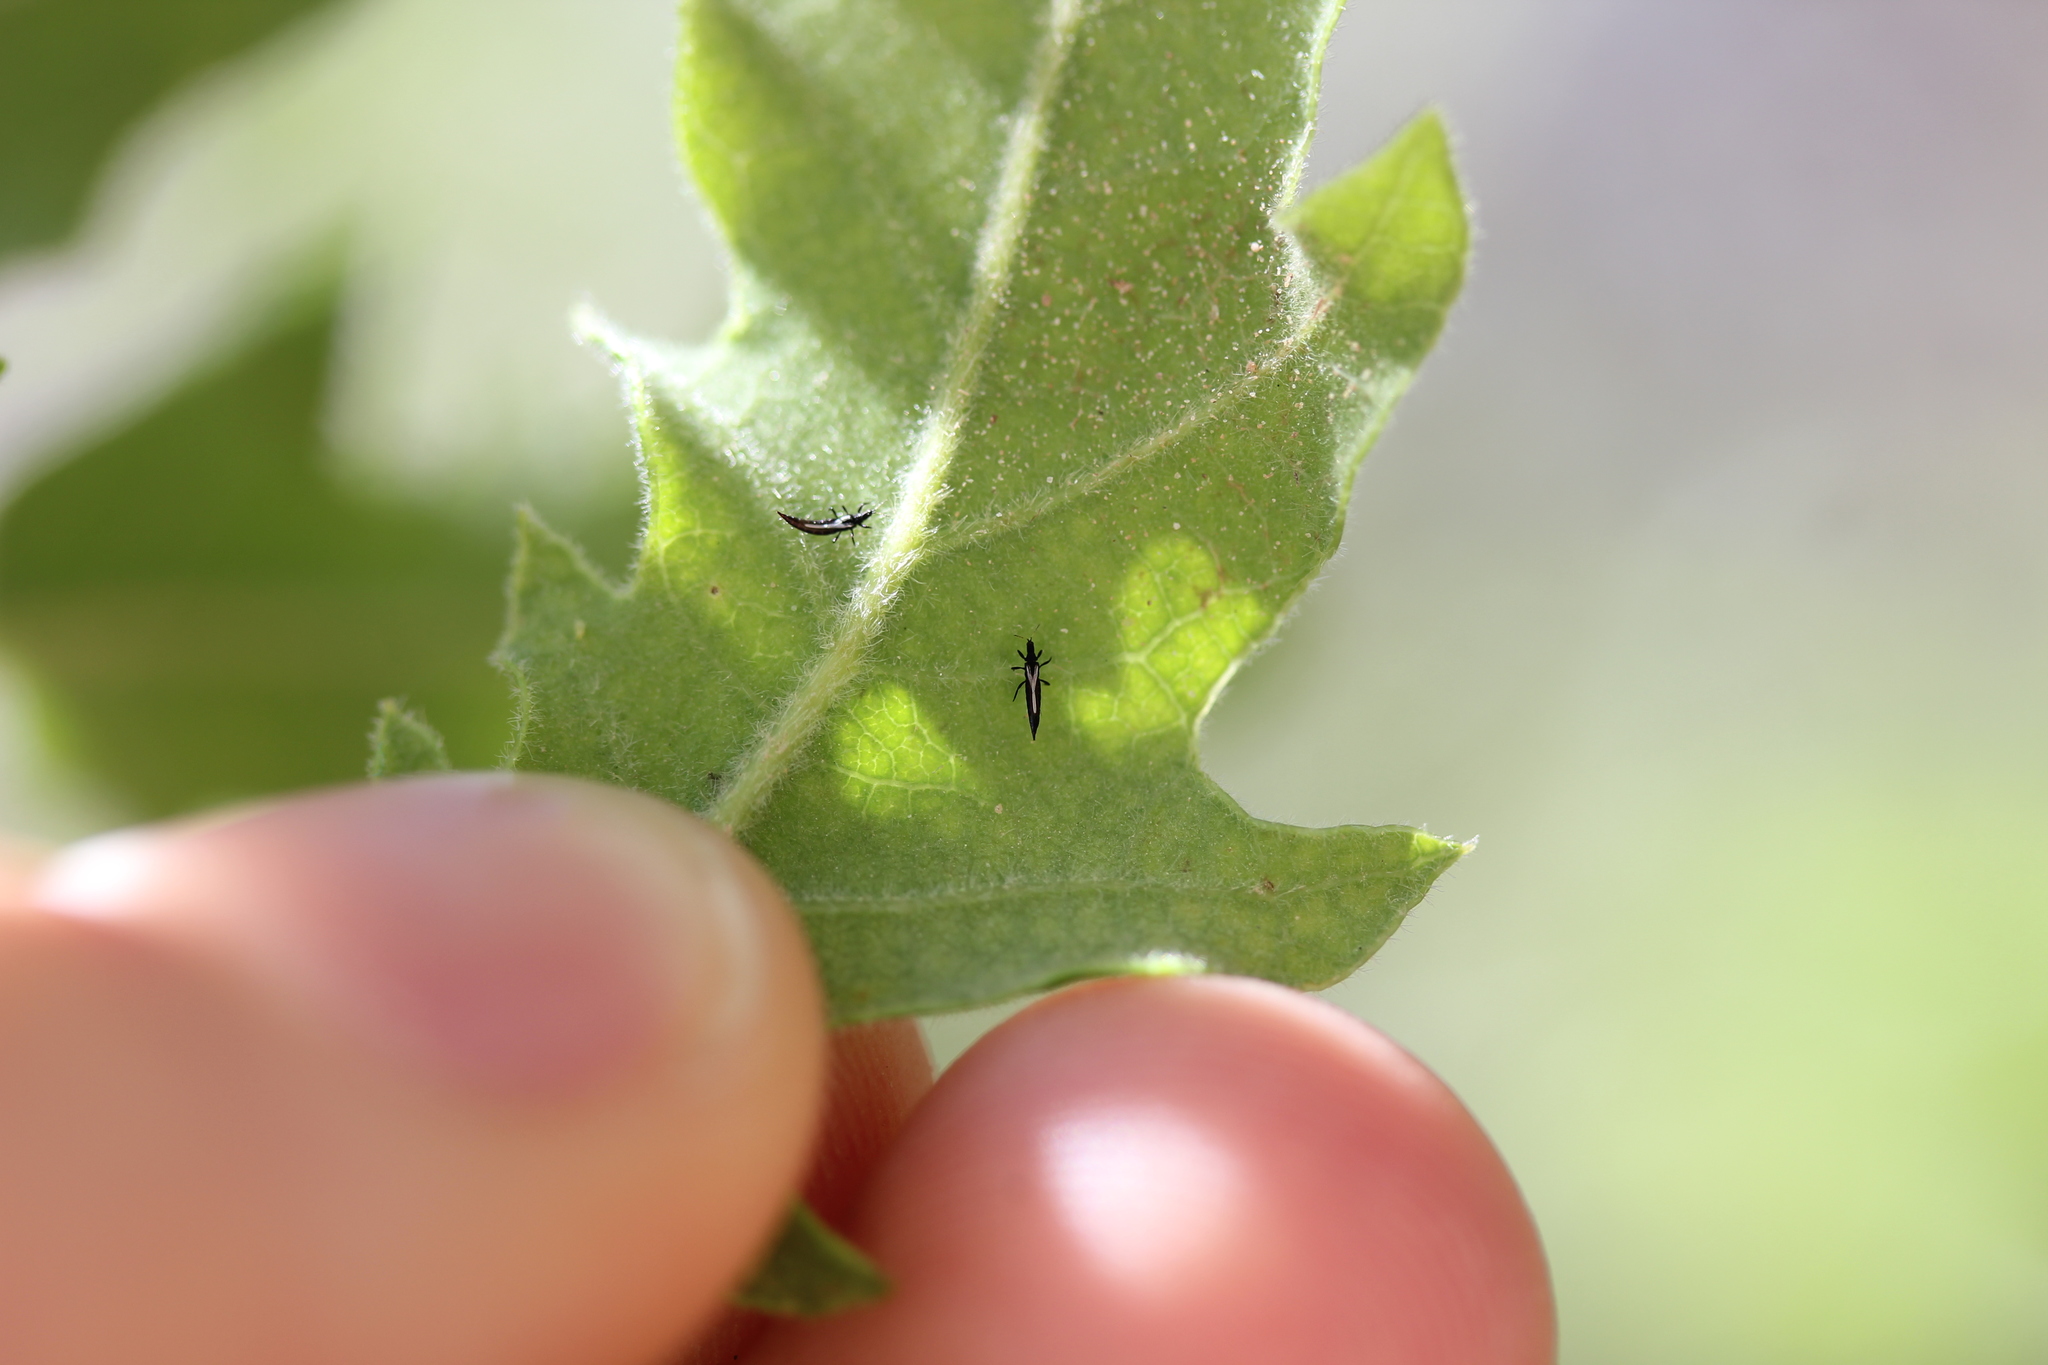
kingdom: Plantae
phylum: Tracheophyta
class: Magnoliopsida
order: Fagales
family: Fagaceae
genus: Quercus
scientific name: Quercus gambelii
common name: Gambel oak
